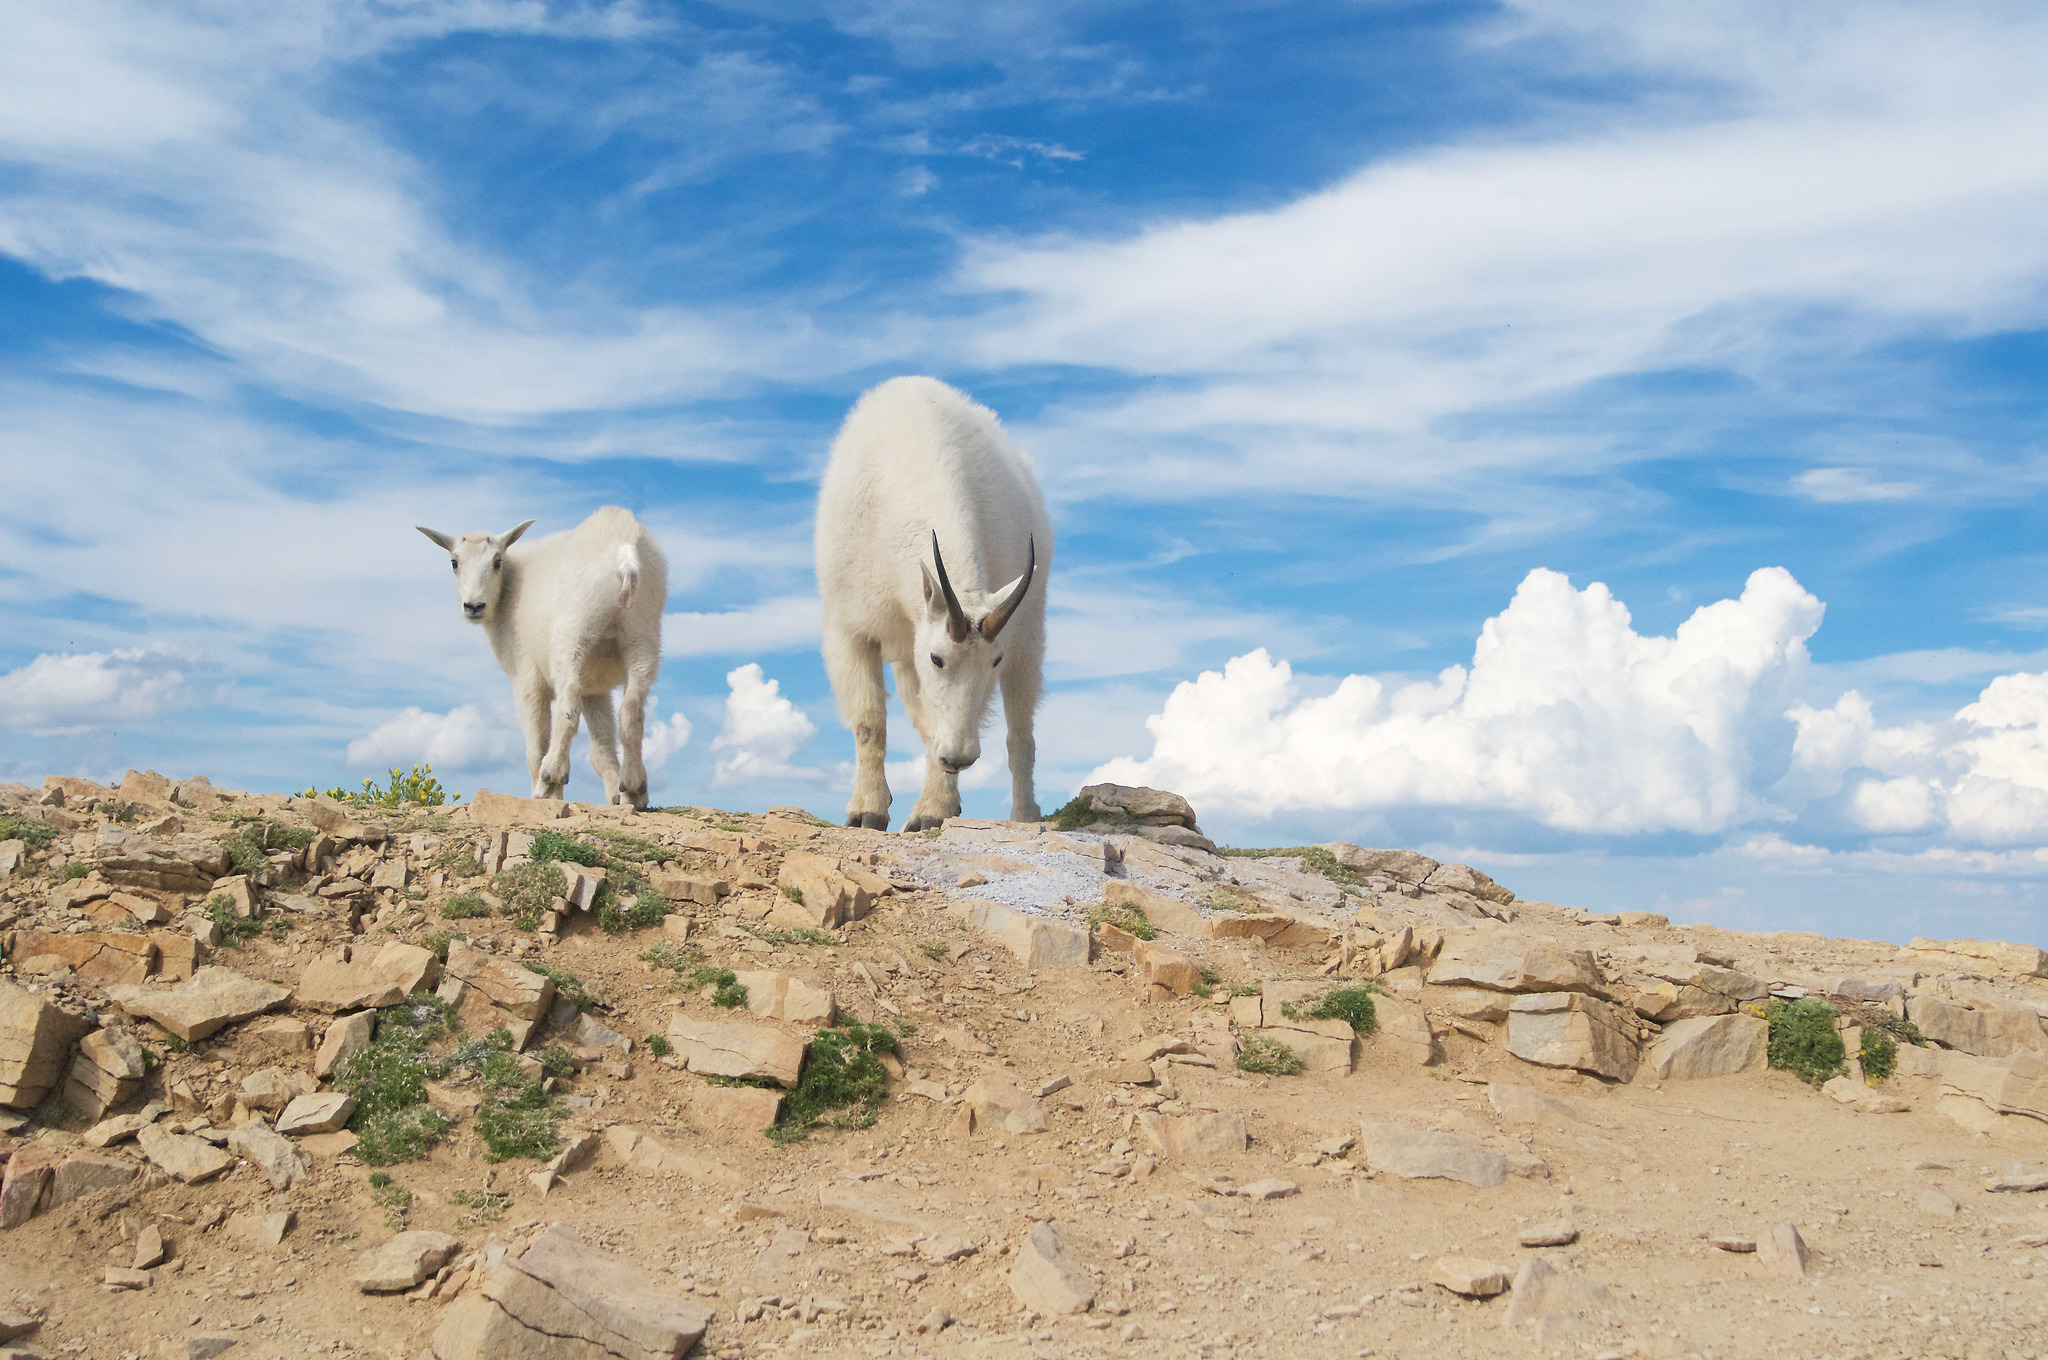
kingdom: Animalia
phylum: Chordata
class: Mammalia
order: Artiodactyla
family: Bovidae
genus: Oreamnos
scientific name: Oreamnos americanus
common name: Mountain goat
